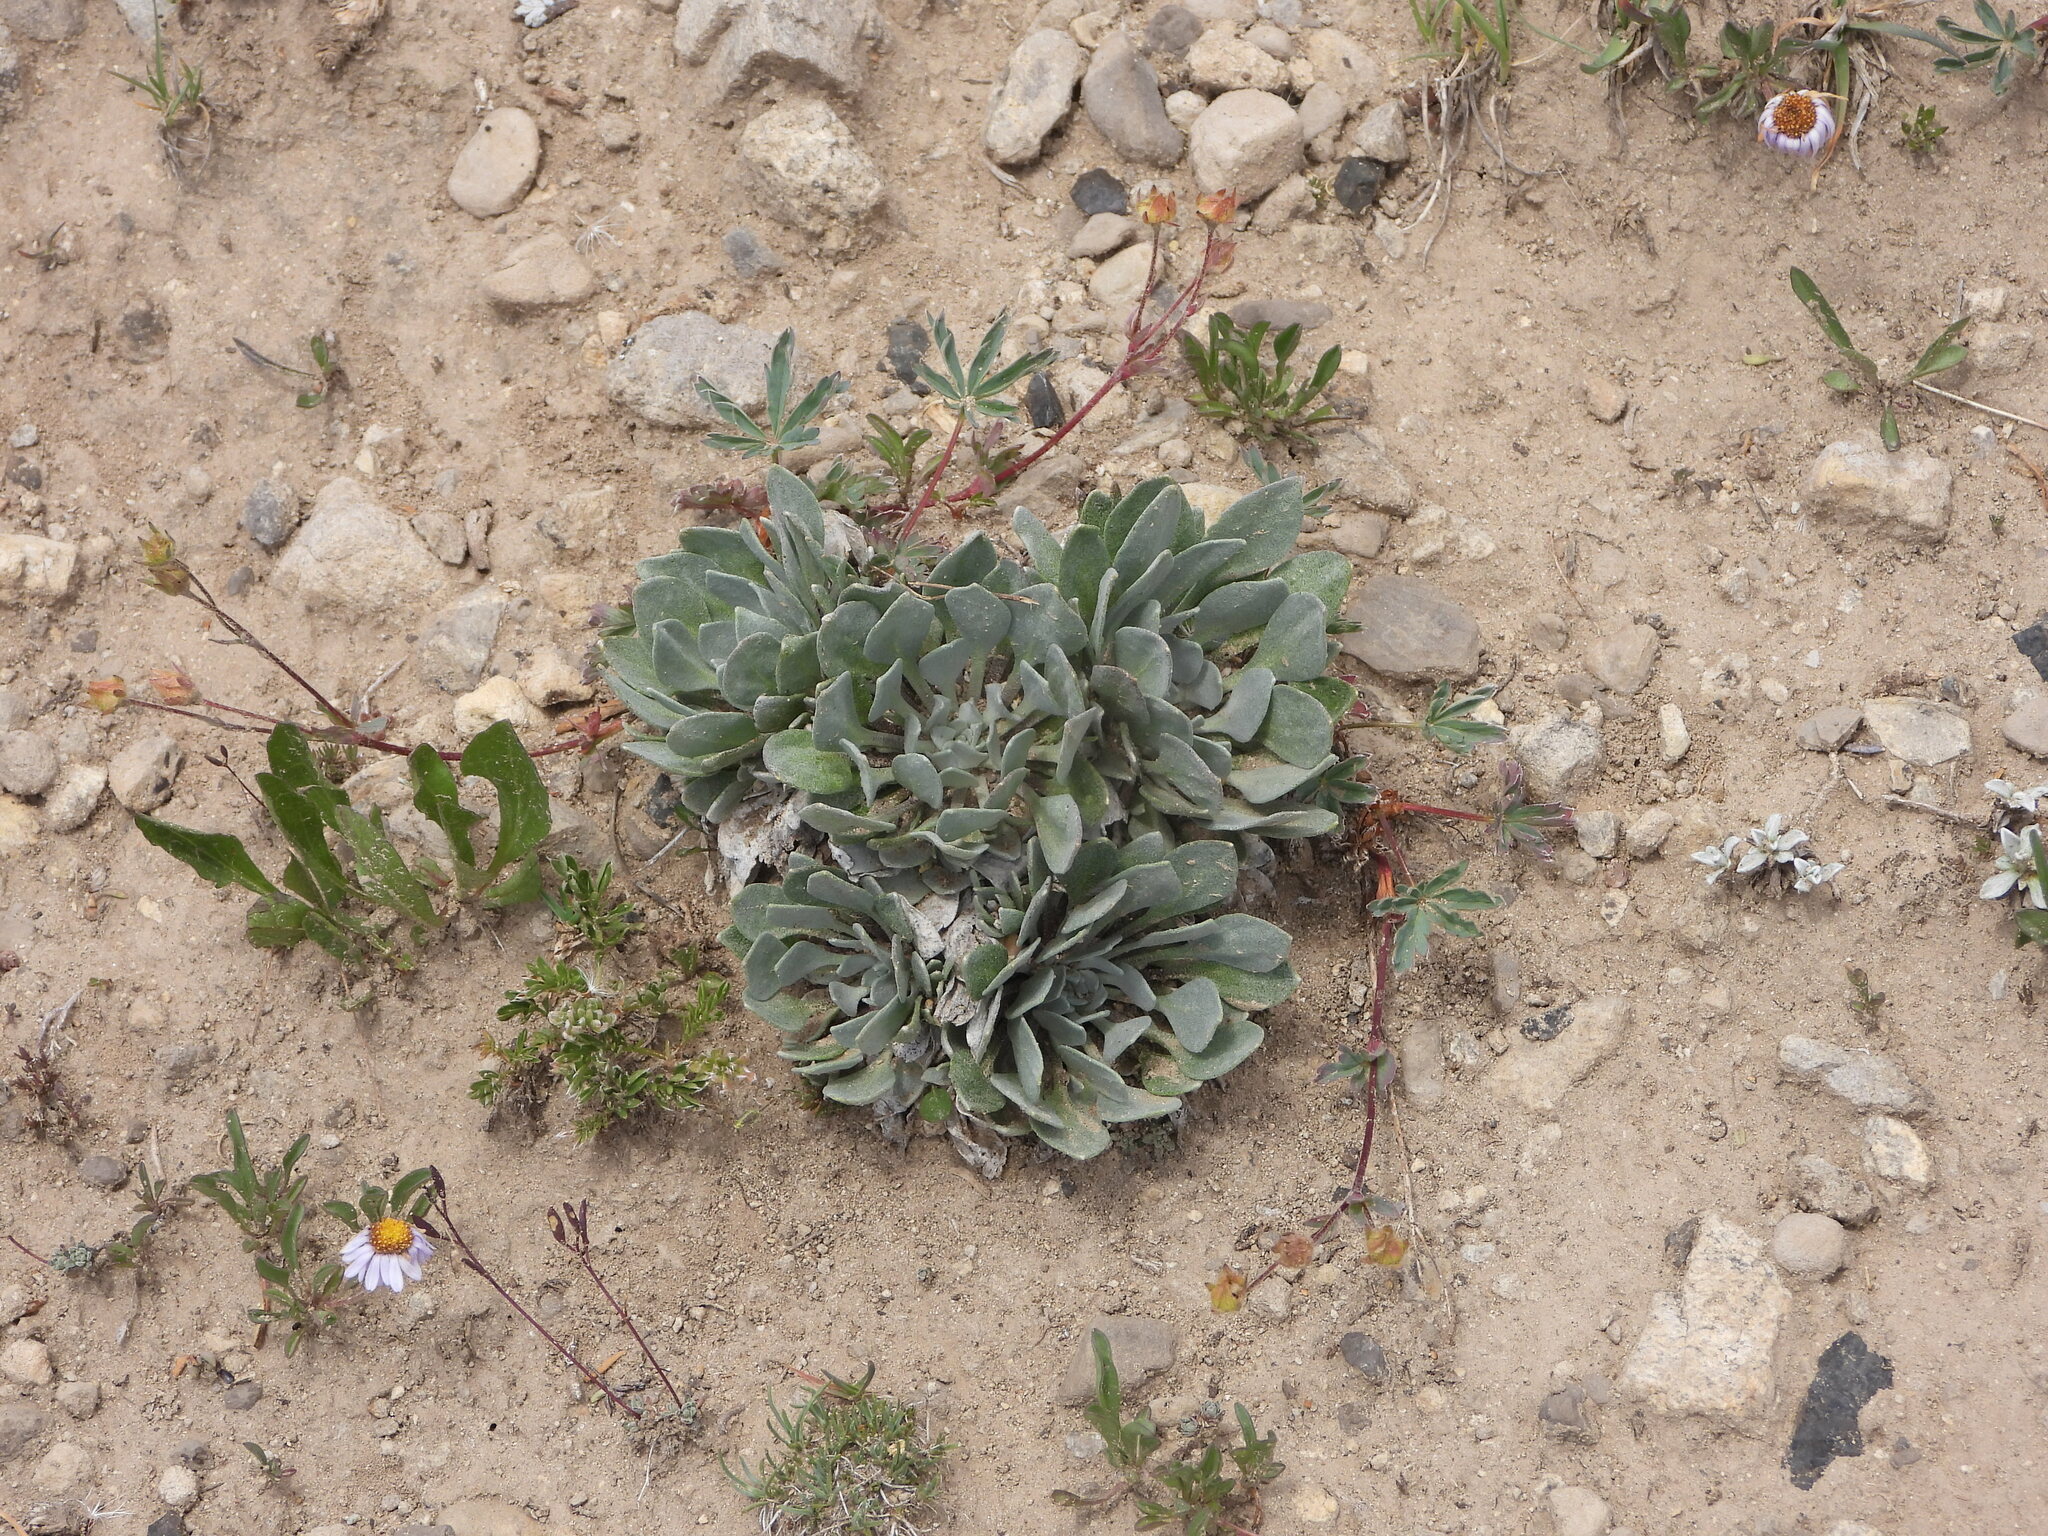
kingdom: Plantae
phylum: Tracheophyta
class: Magnoliopsida
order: Brassicales
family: Brassicaceae
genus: Physaria
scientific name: Physaria alpina
